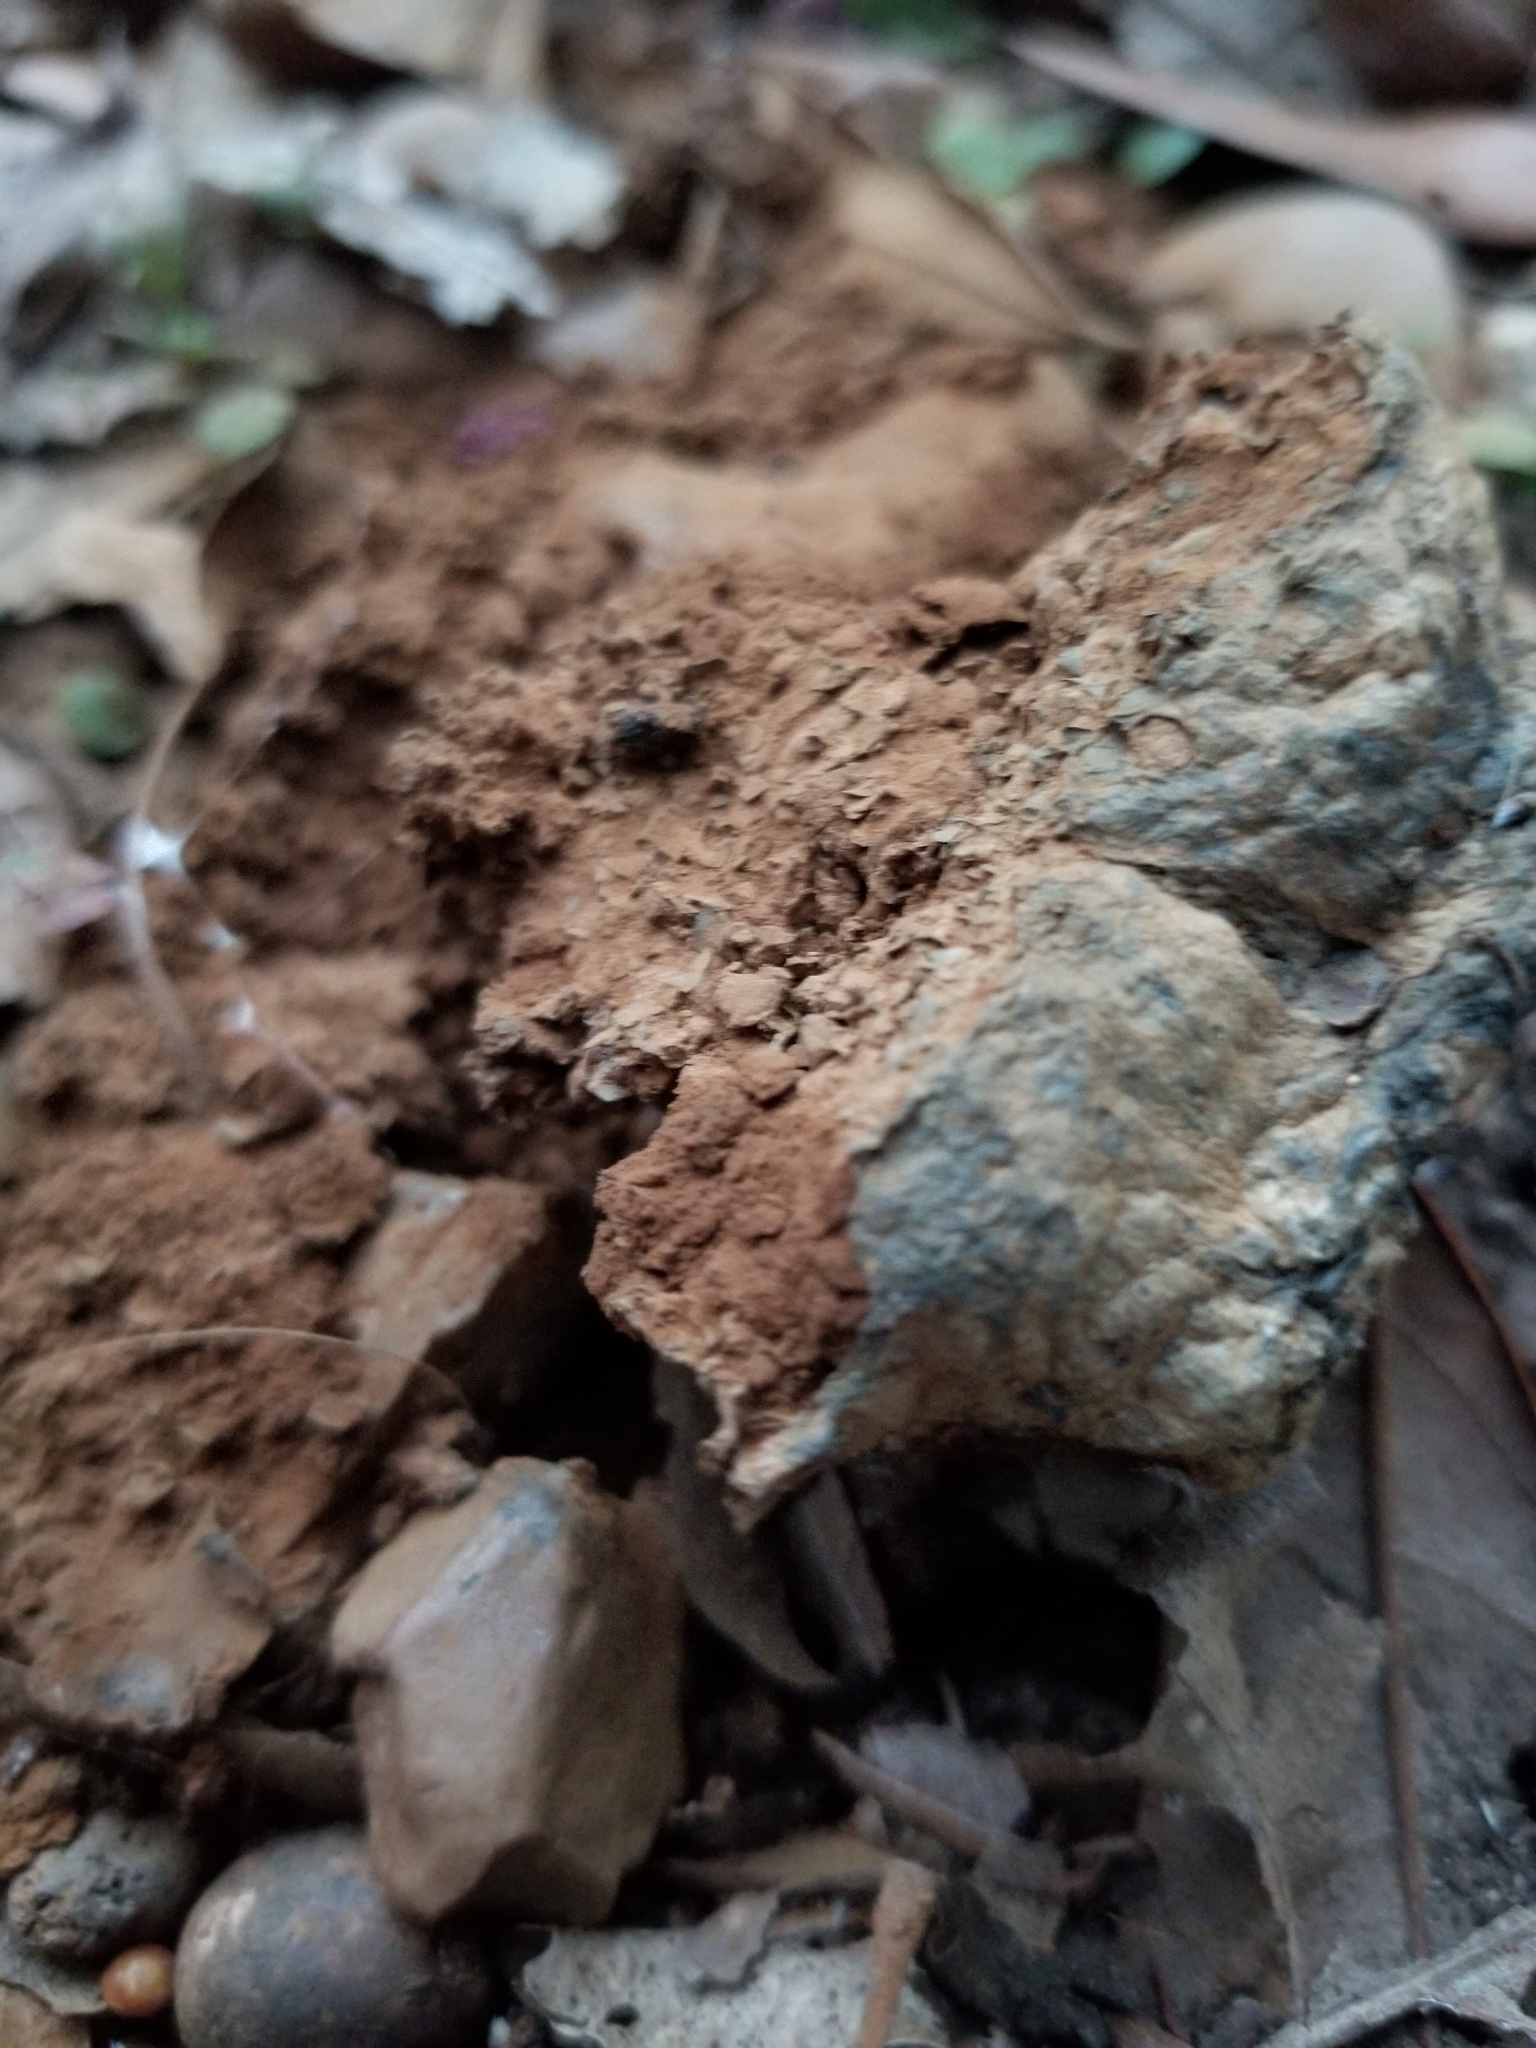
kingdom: Fungi
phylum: Basidiomycota
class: Agaricomycetes
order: Boletales
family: Sclerodermataceae
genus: Pisolithus
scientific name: Pisolithus arhizus
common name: Dyeball
